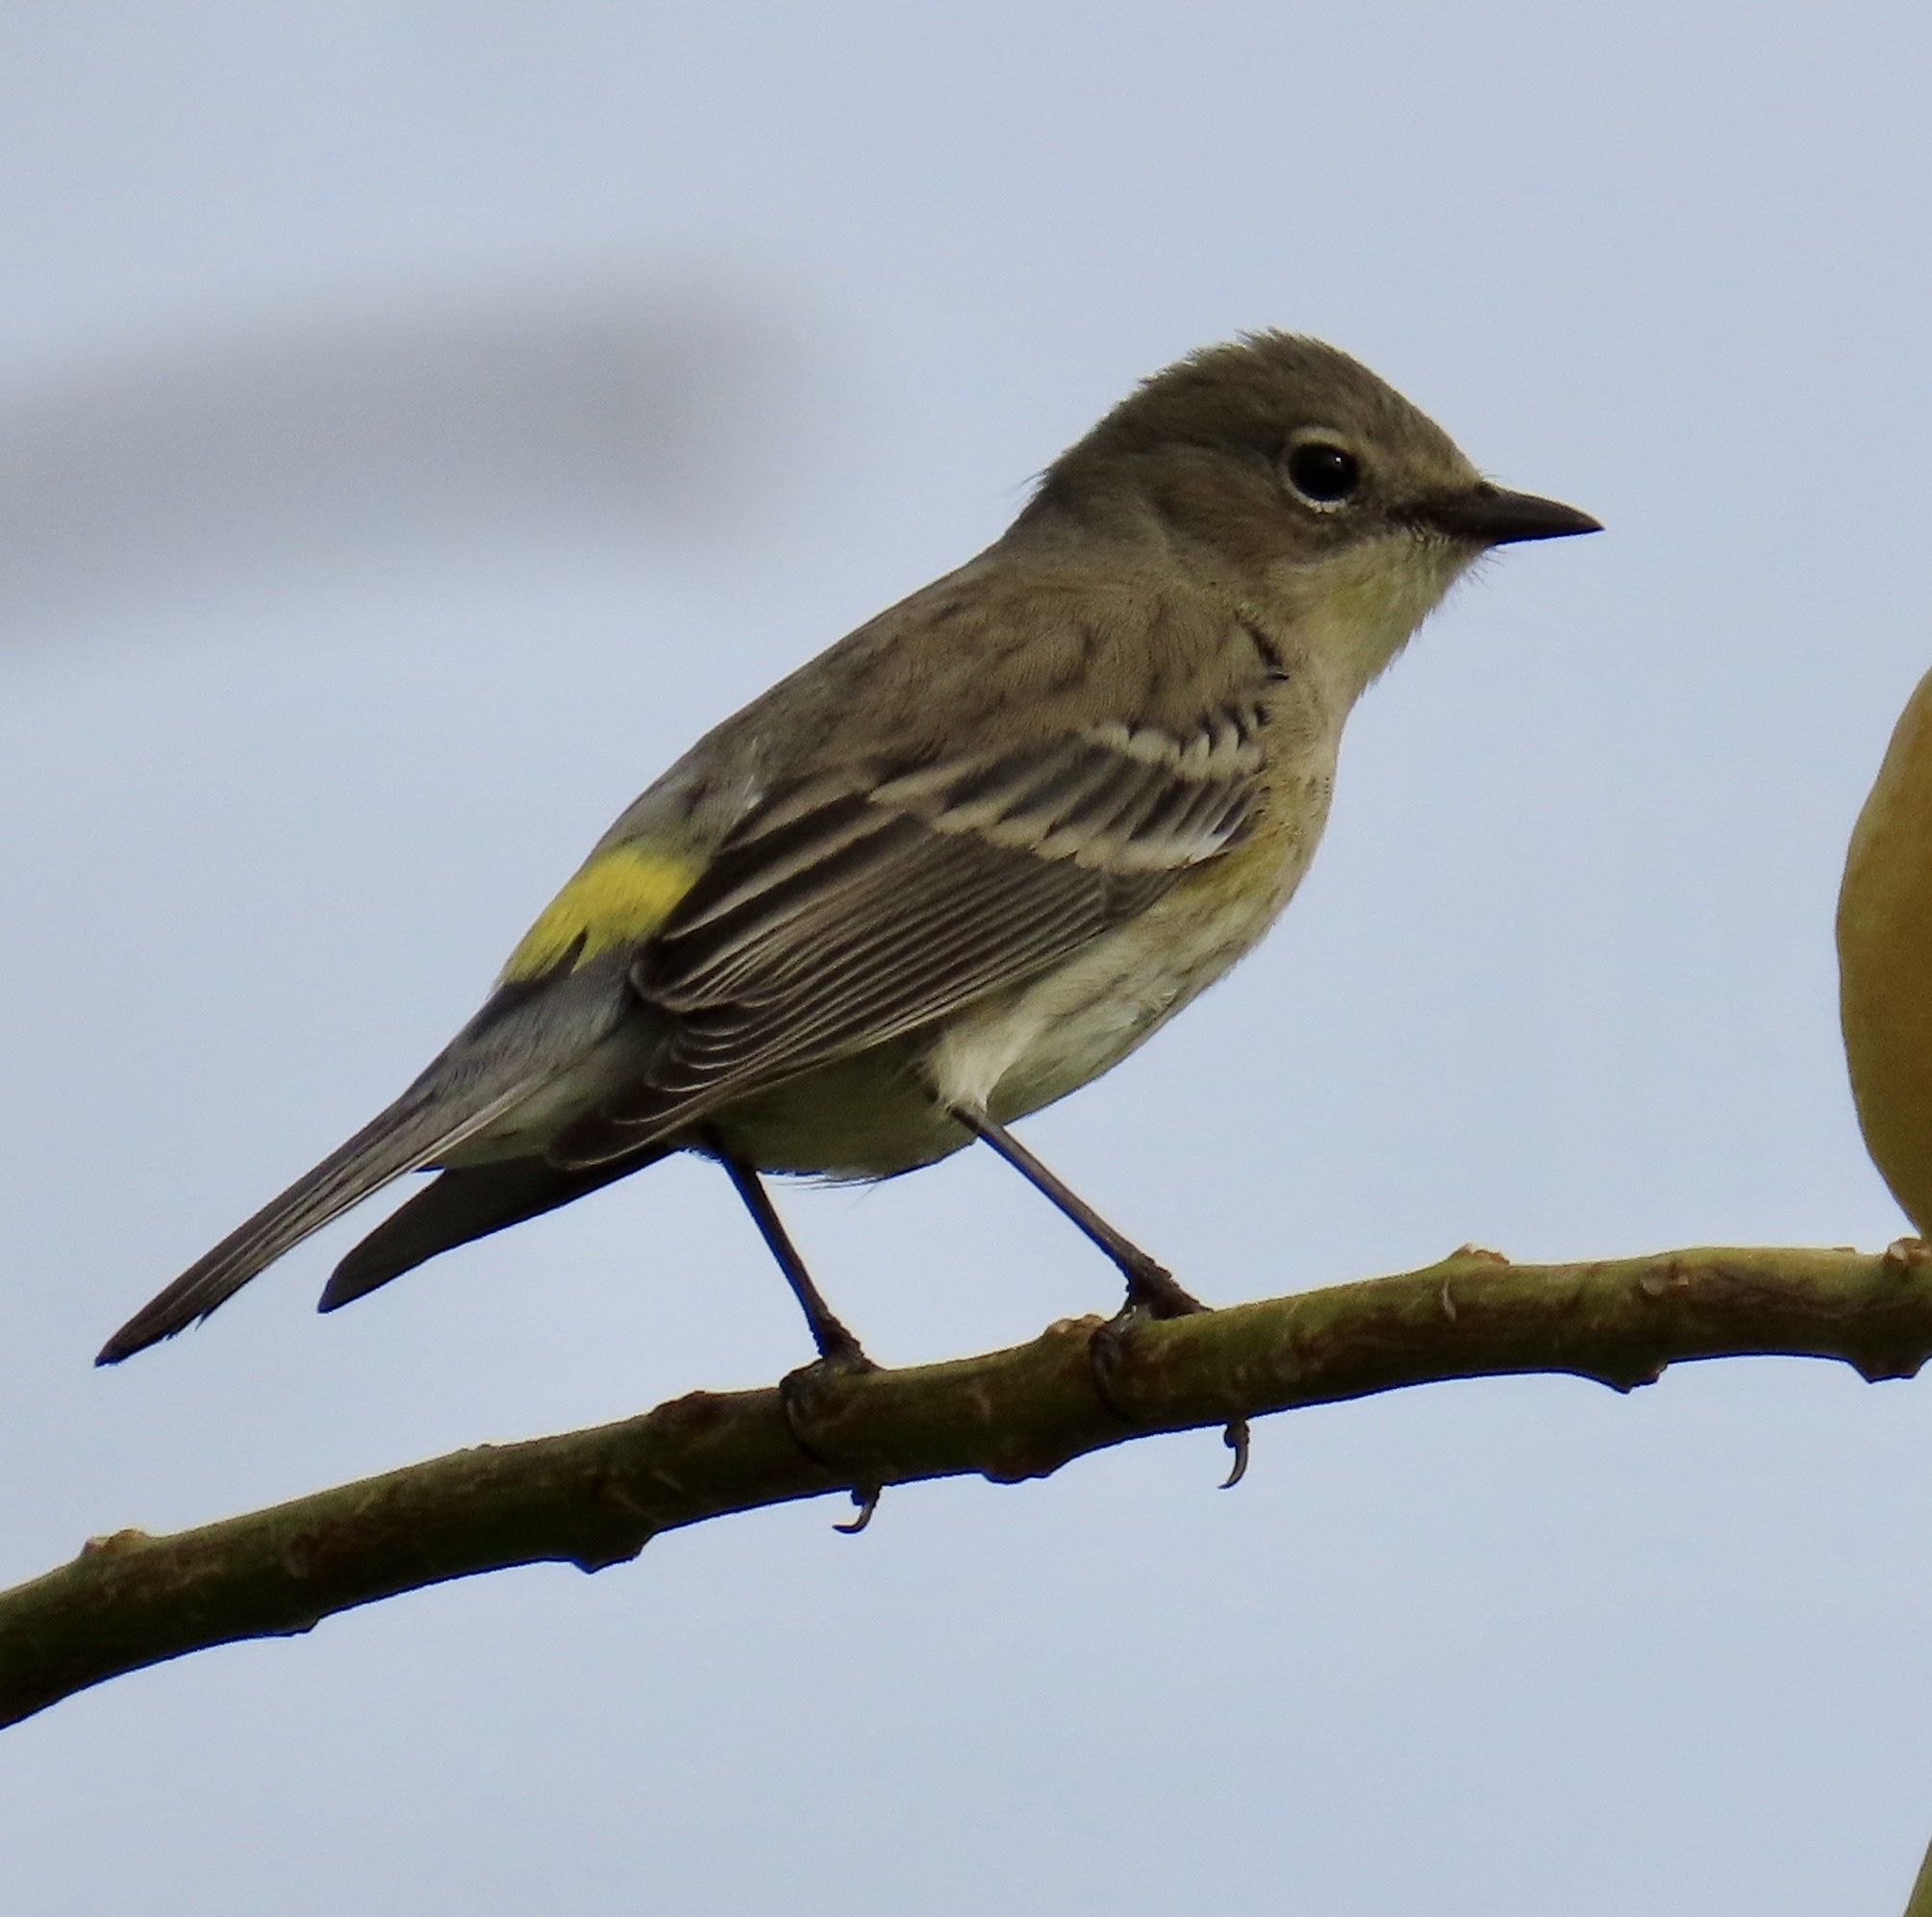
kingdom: Animalia
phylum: Chordata
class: Aves
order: Passeriformes
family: Parulidae
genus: Setophaga
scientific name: Setophaga coronata
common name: Myrtle warbler
